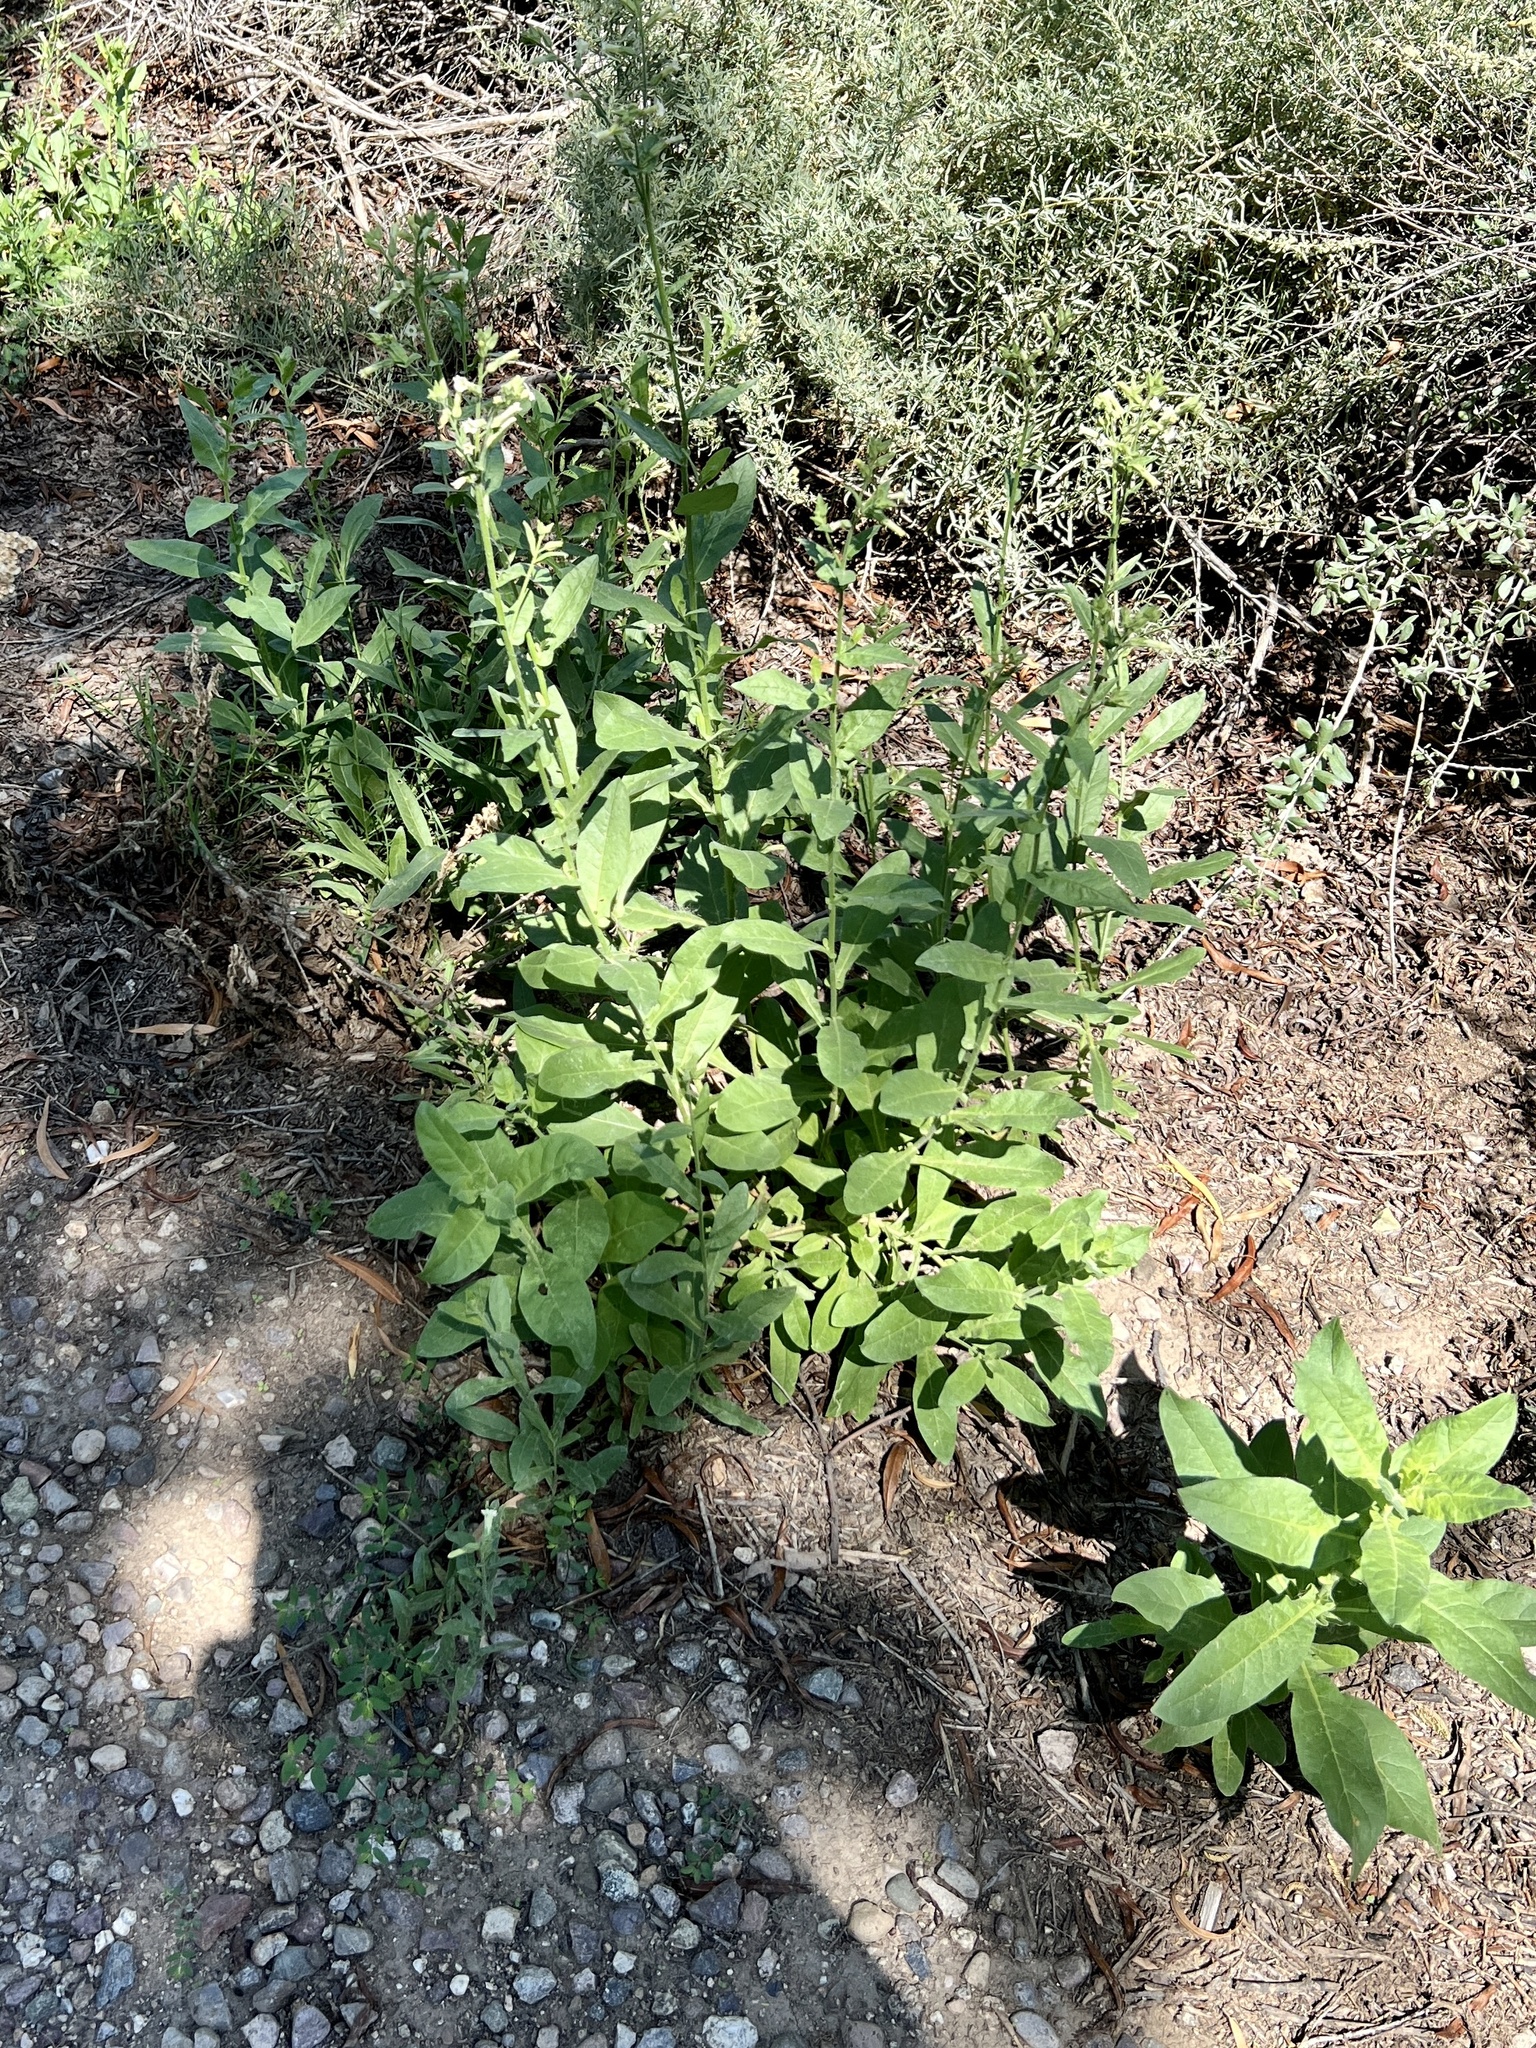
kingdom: Plantae
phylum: Tracheophyta
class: Magnoliopsida
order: Solanales
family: Solanaceae
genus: Nicotiana
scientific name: Nicotiana obtusifolia
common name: Desert tobacco
